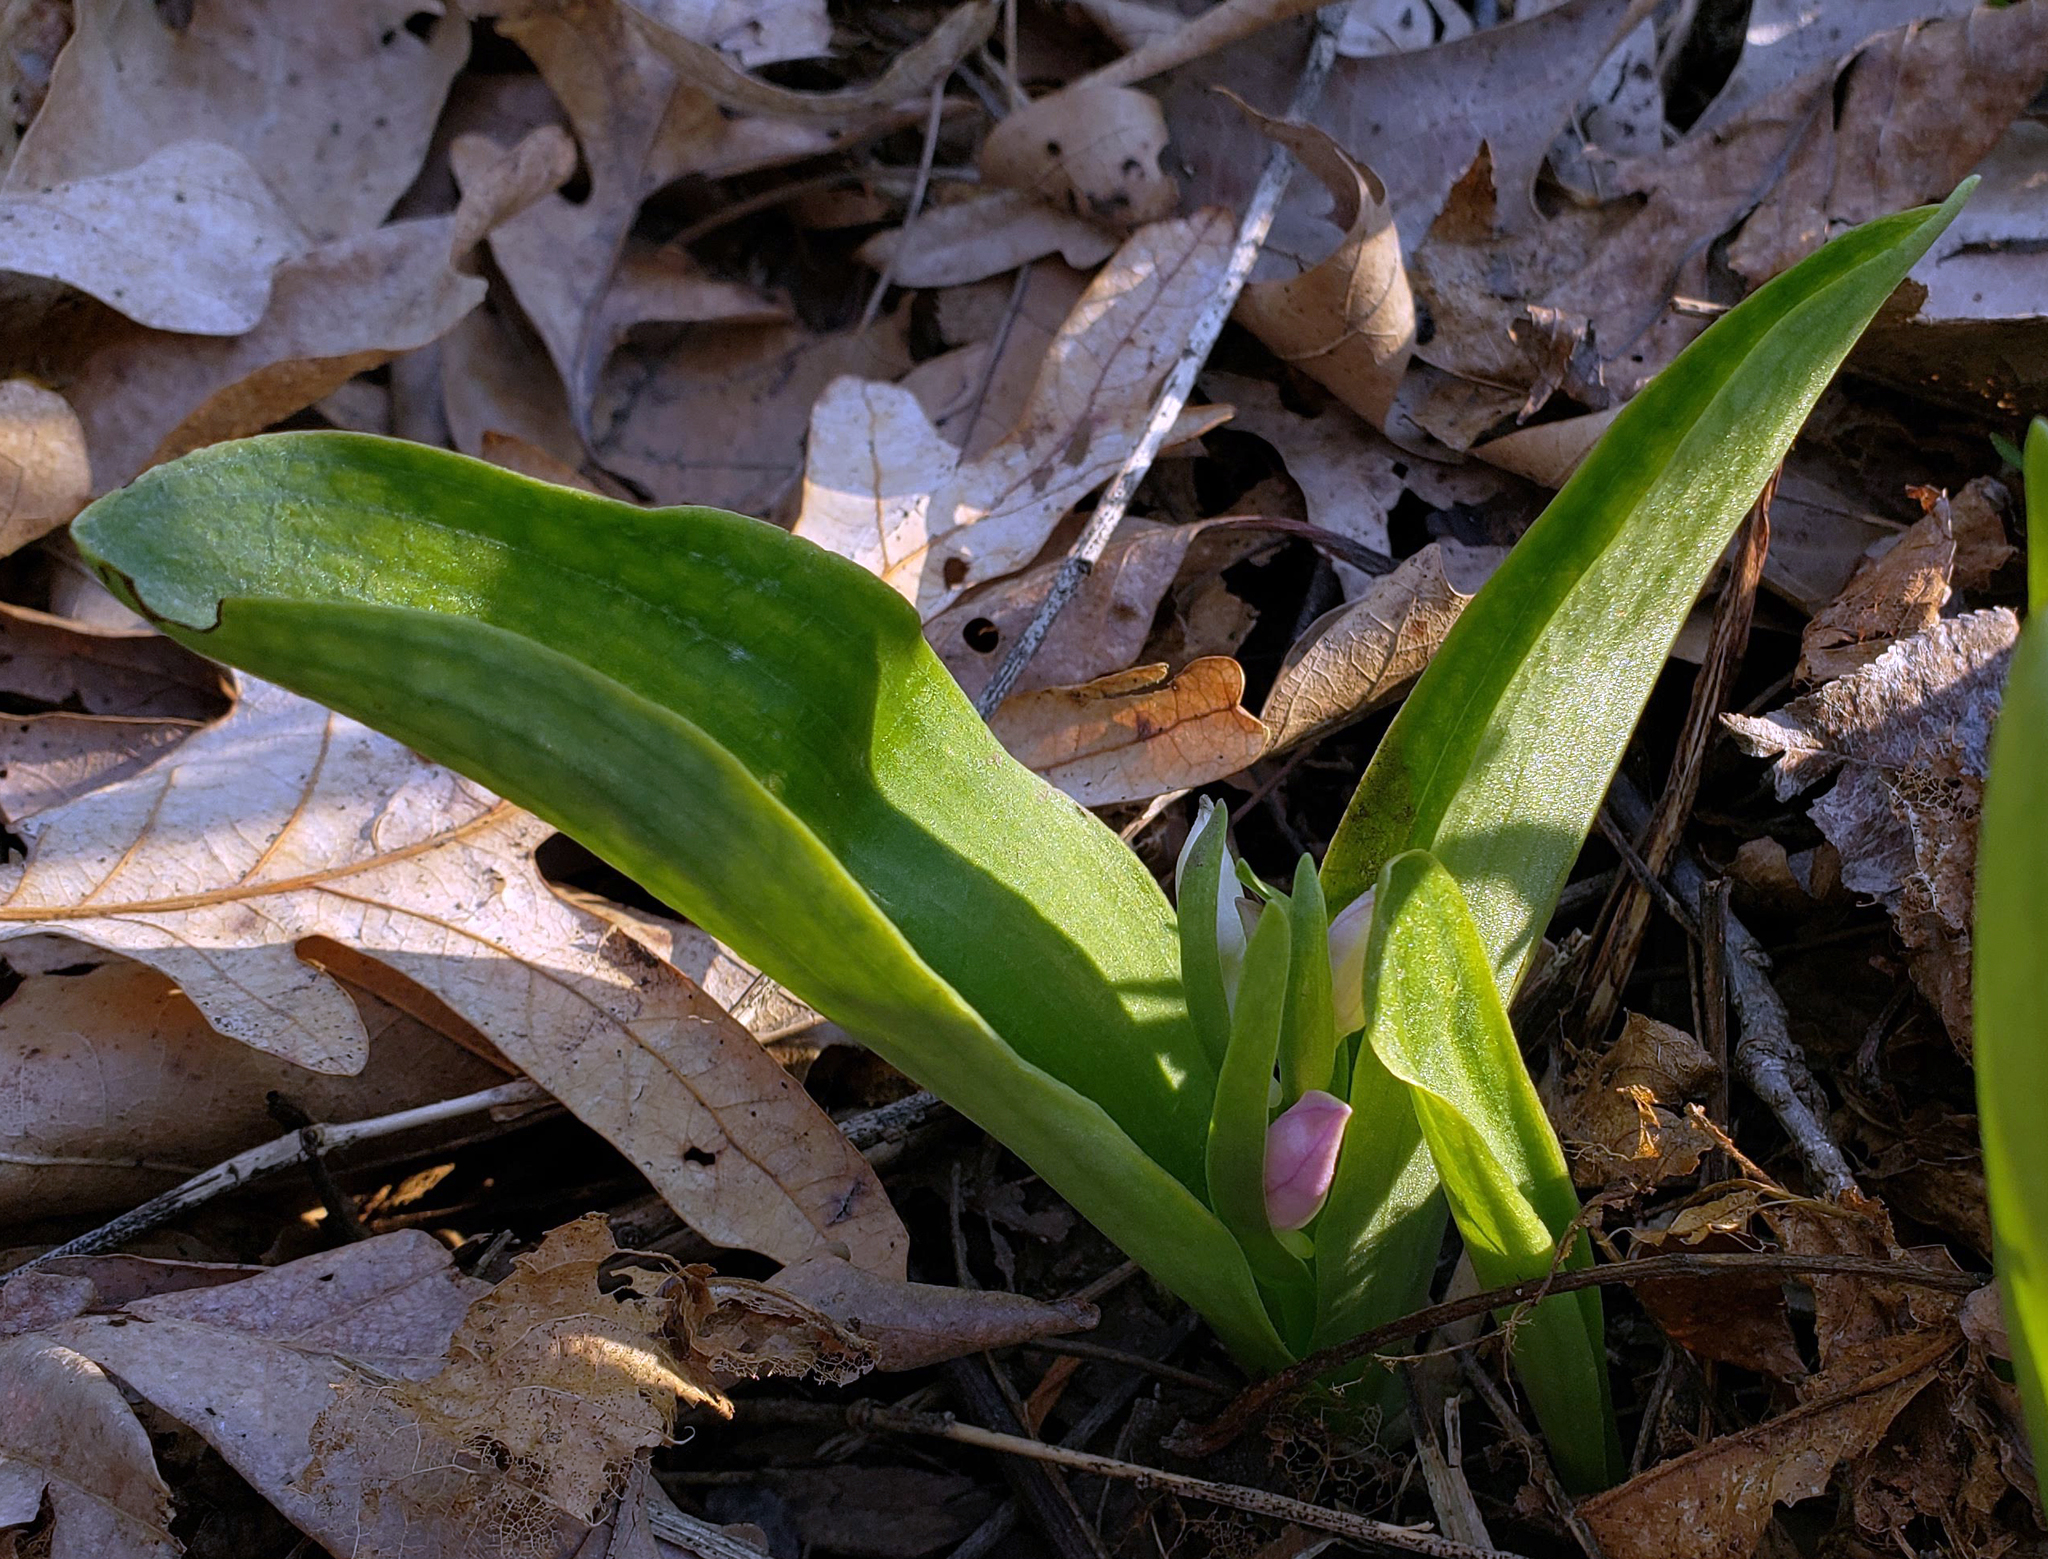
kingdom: Plantae
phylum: Tracheophyta
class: Liliopsida
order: Asparagales
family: Orchidaceae
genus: Galearis
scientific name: Galearis spectabilis
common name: Purple-hooded orchis
